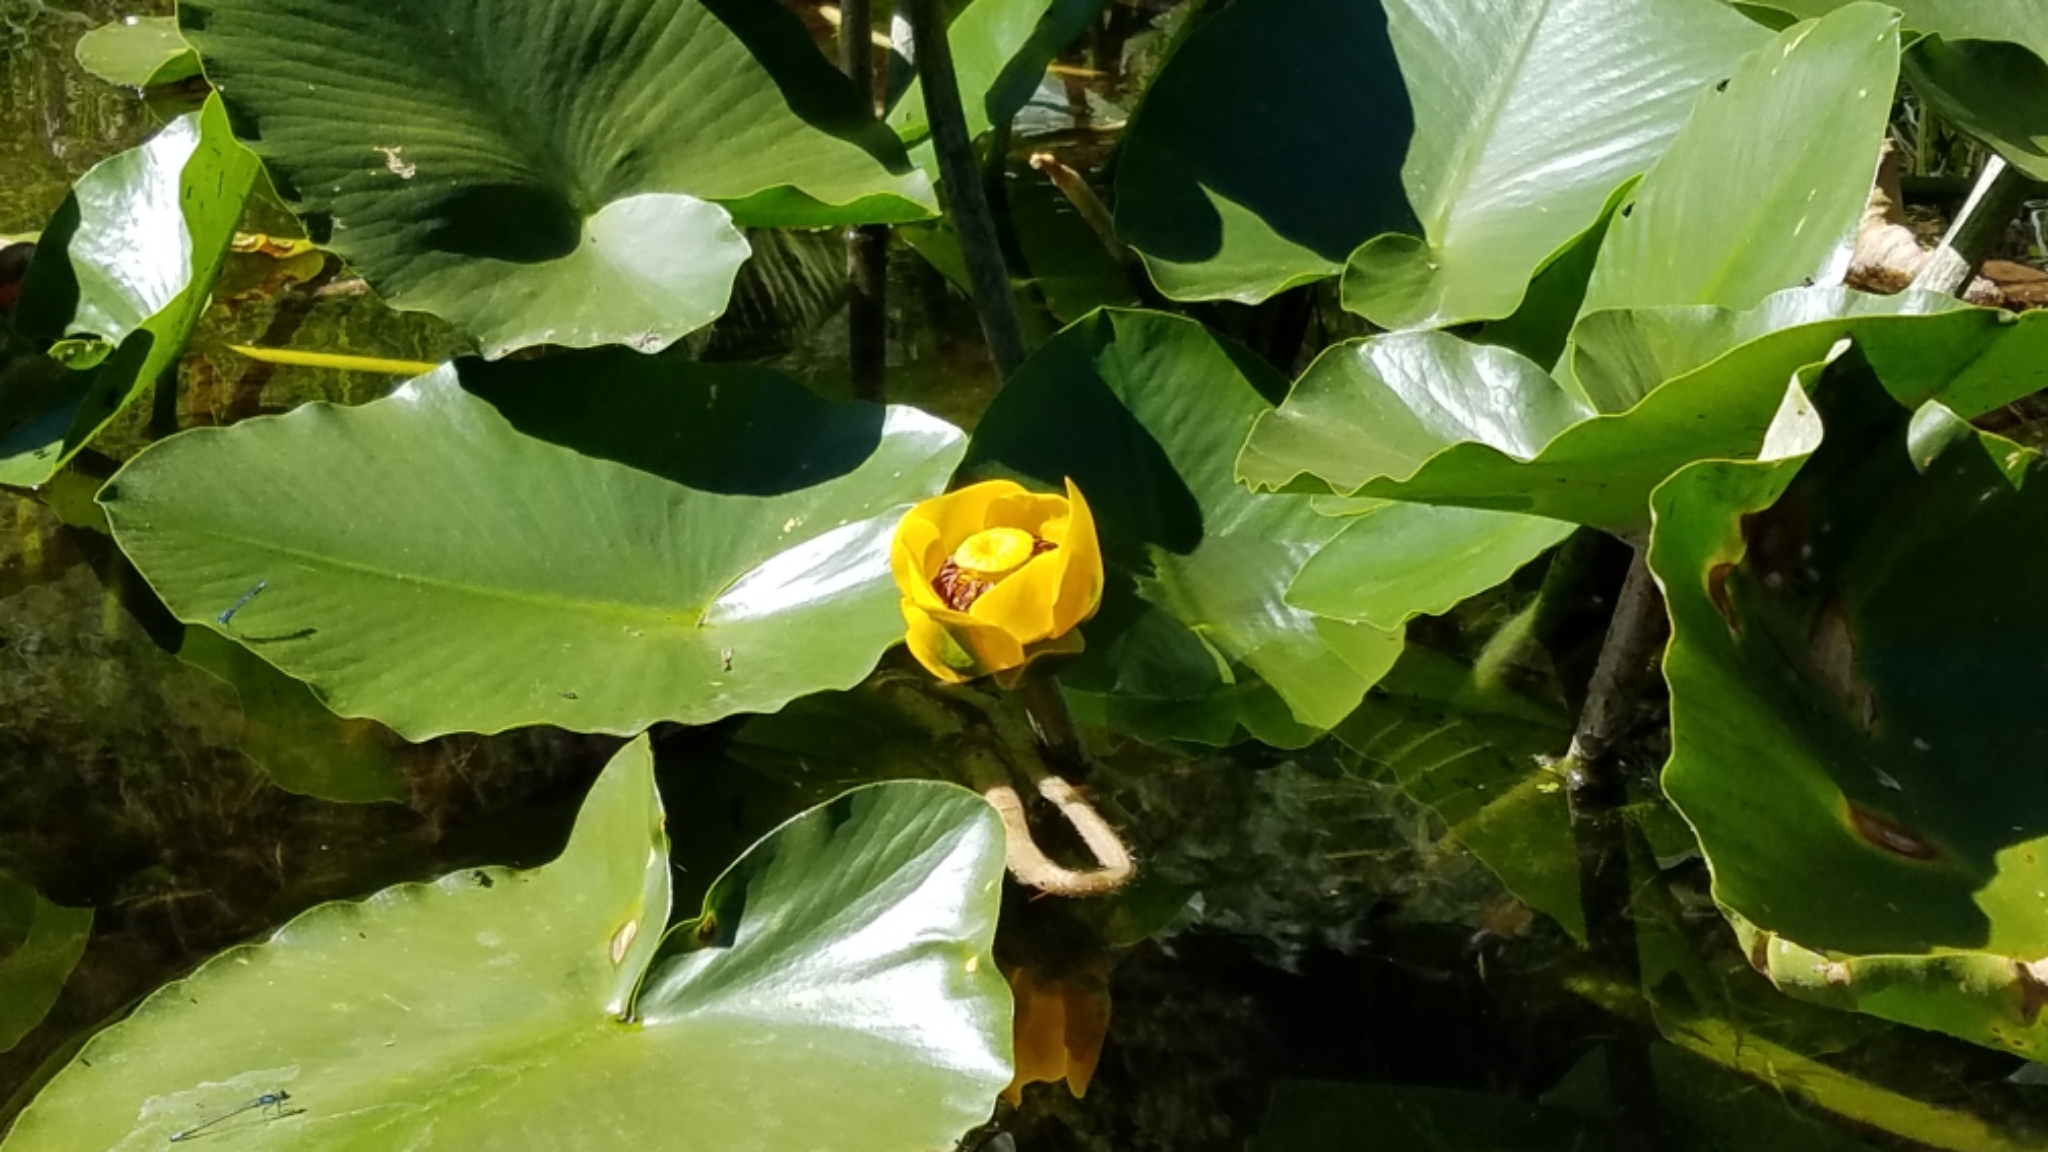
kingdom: Plantae
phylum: Tracheophyta
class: Magnoliopsida
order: Nymphaeales
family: Nymphaeaceae
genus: Nuphar
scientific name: Nuphar polysepala
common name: Rocky mountain cow-lily
